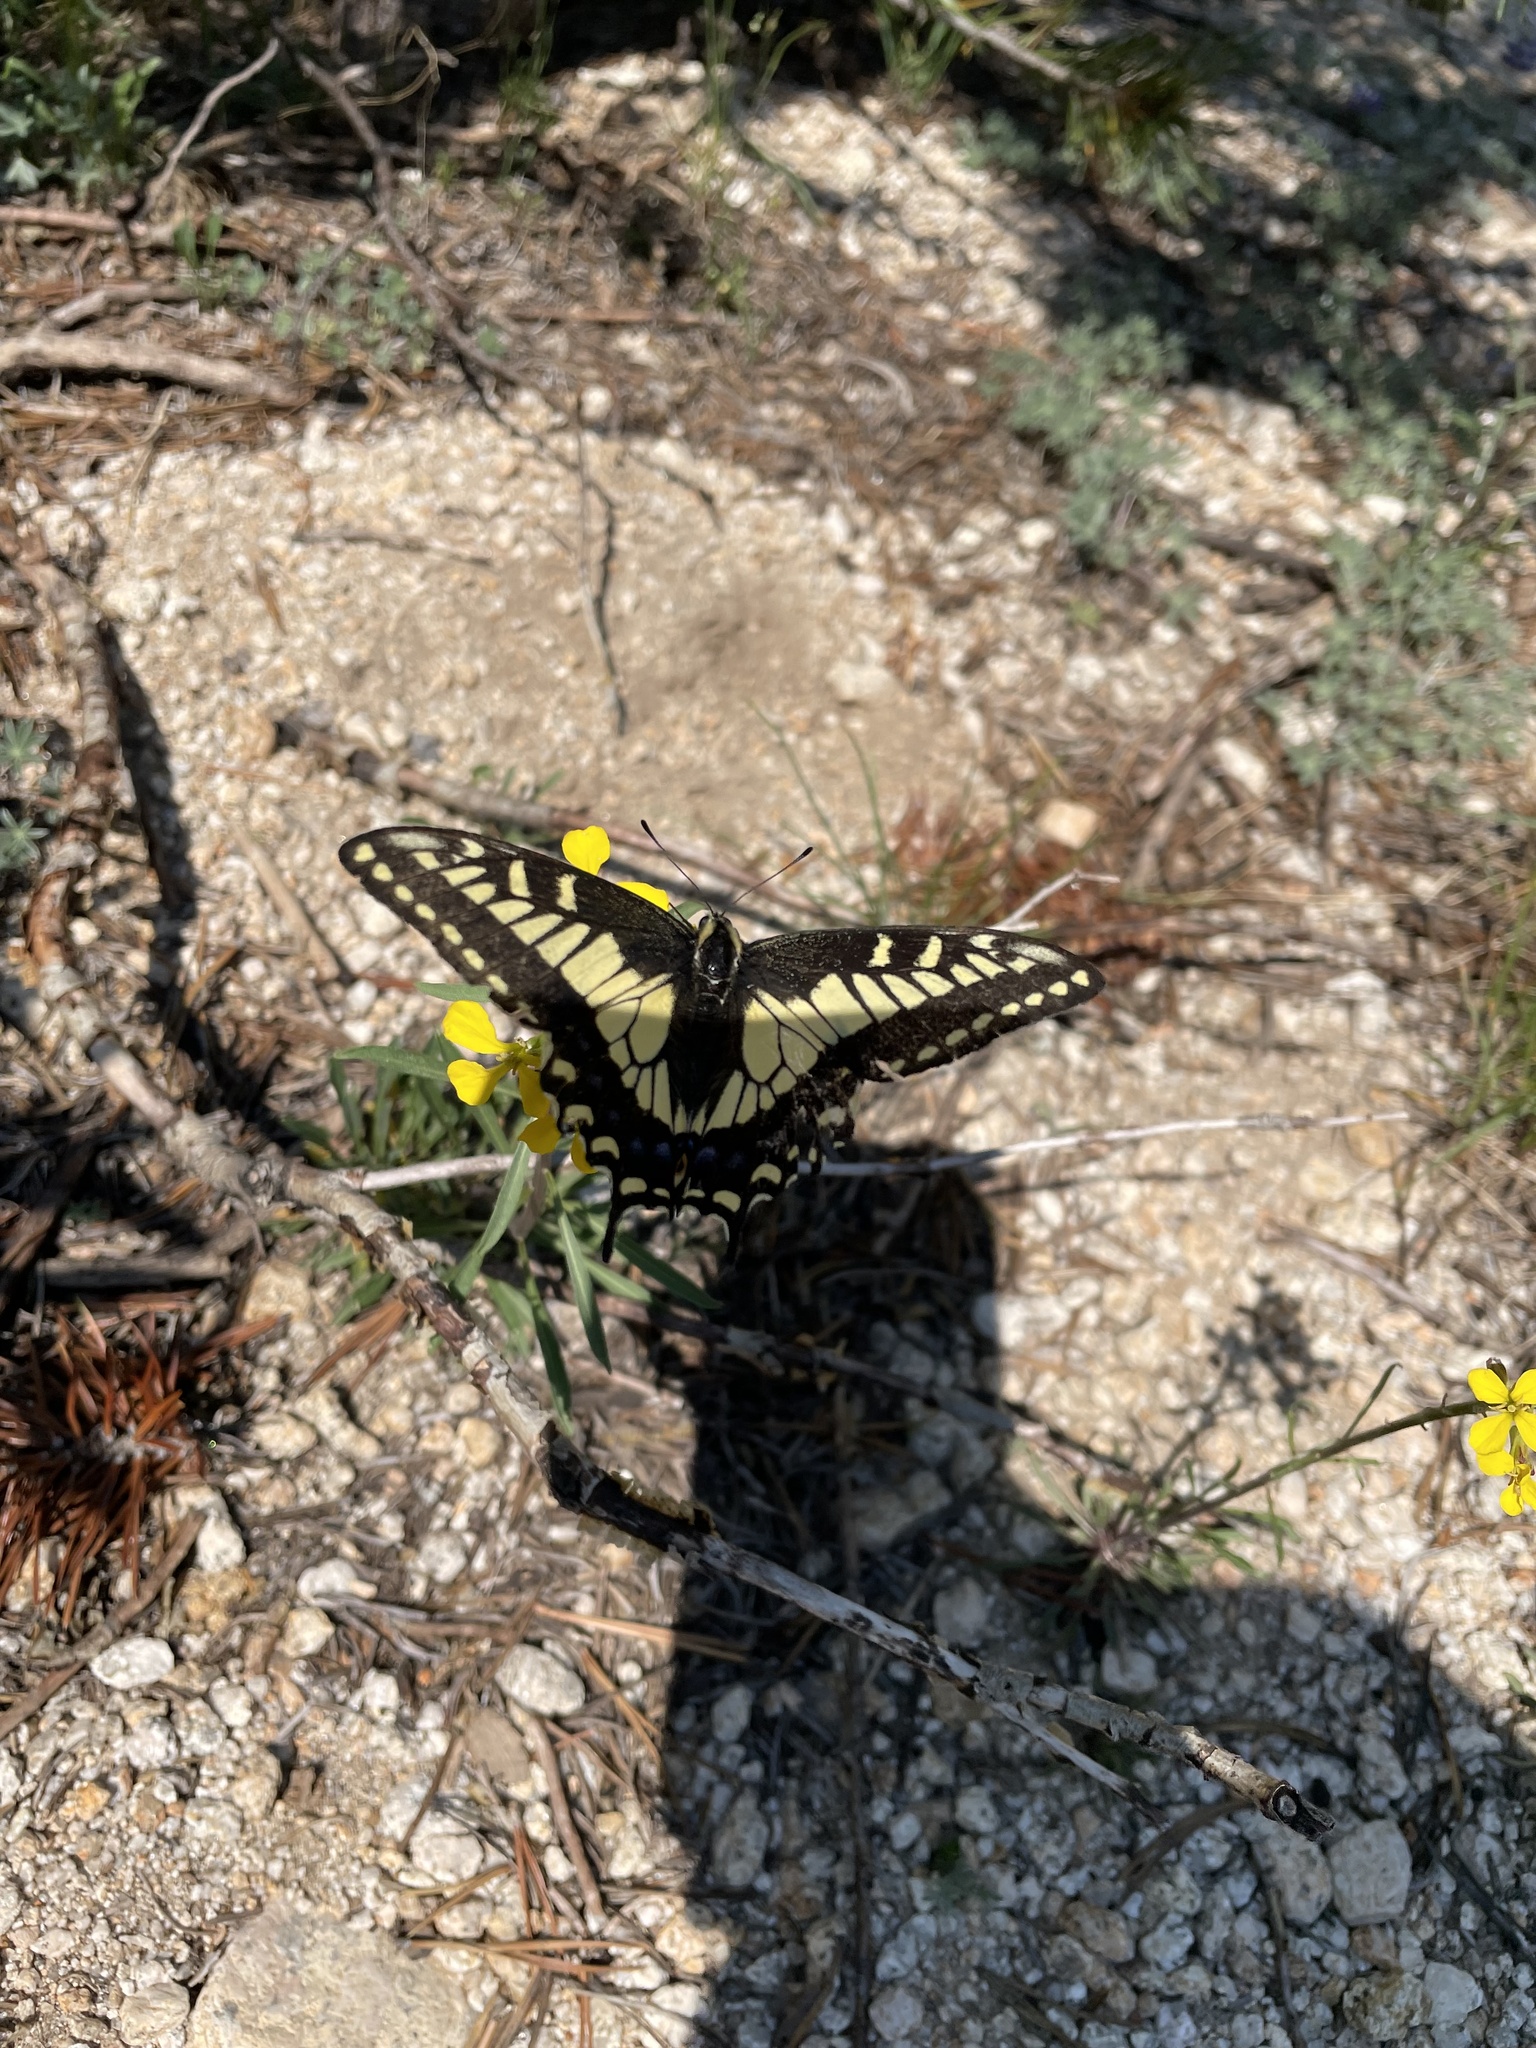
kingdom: Animalia
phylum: Arthropoda
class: Insecta
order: Lepidoptera
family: Papilionidae
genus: Papilio
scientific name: Papilio zelicaon
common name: Anise swallowtail
